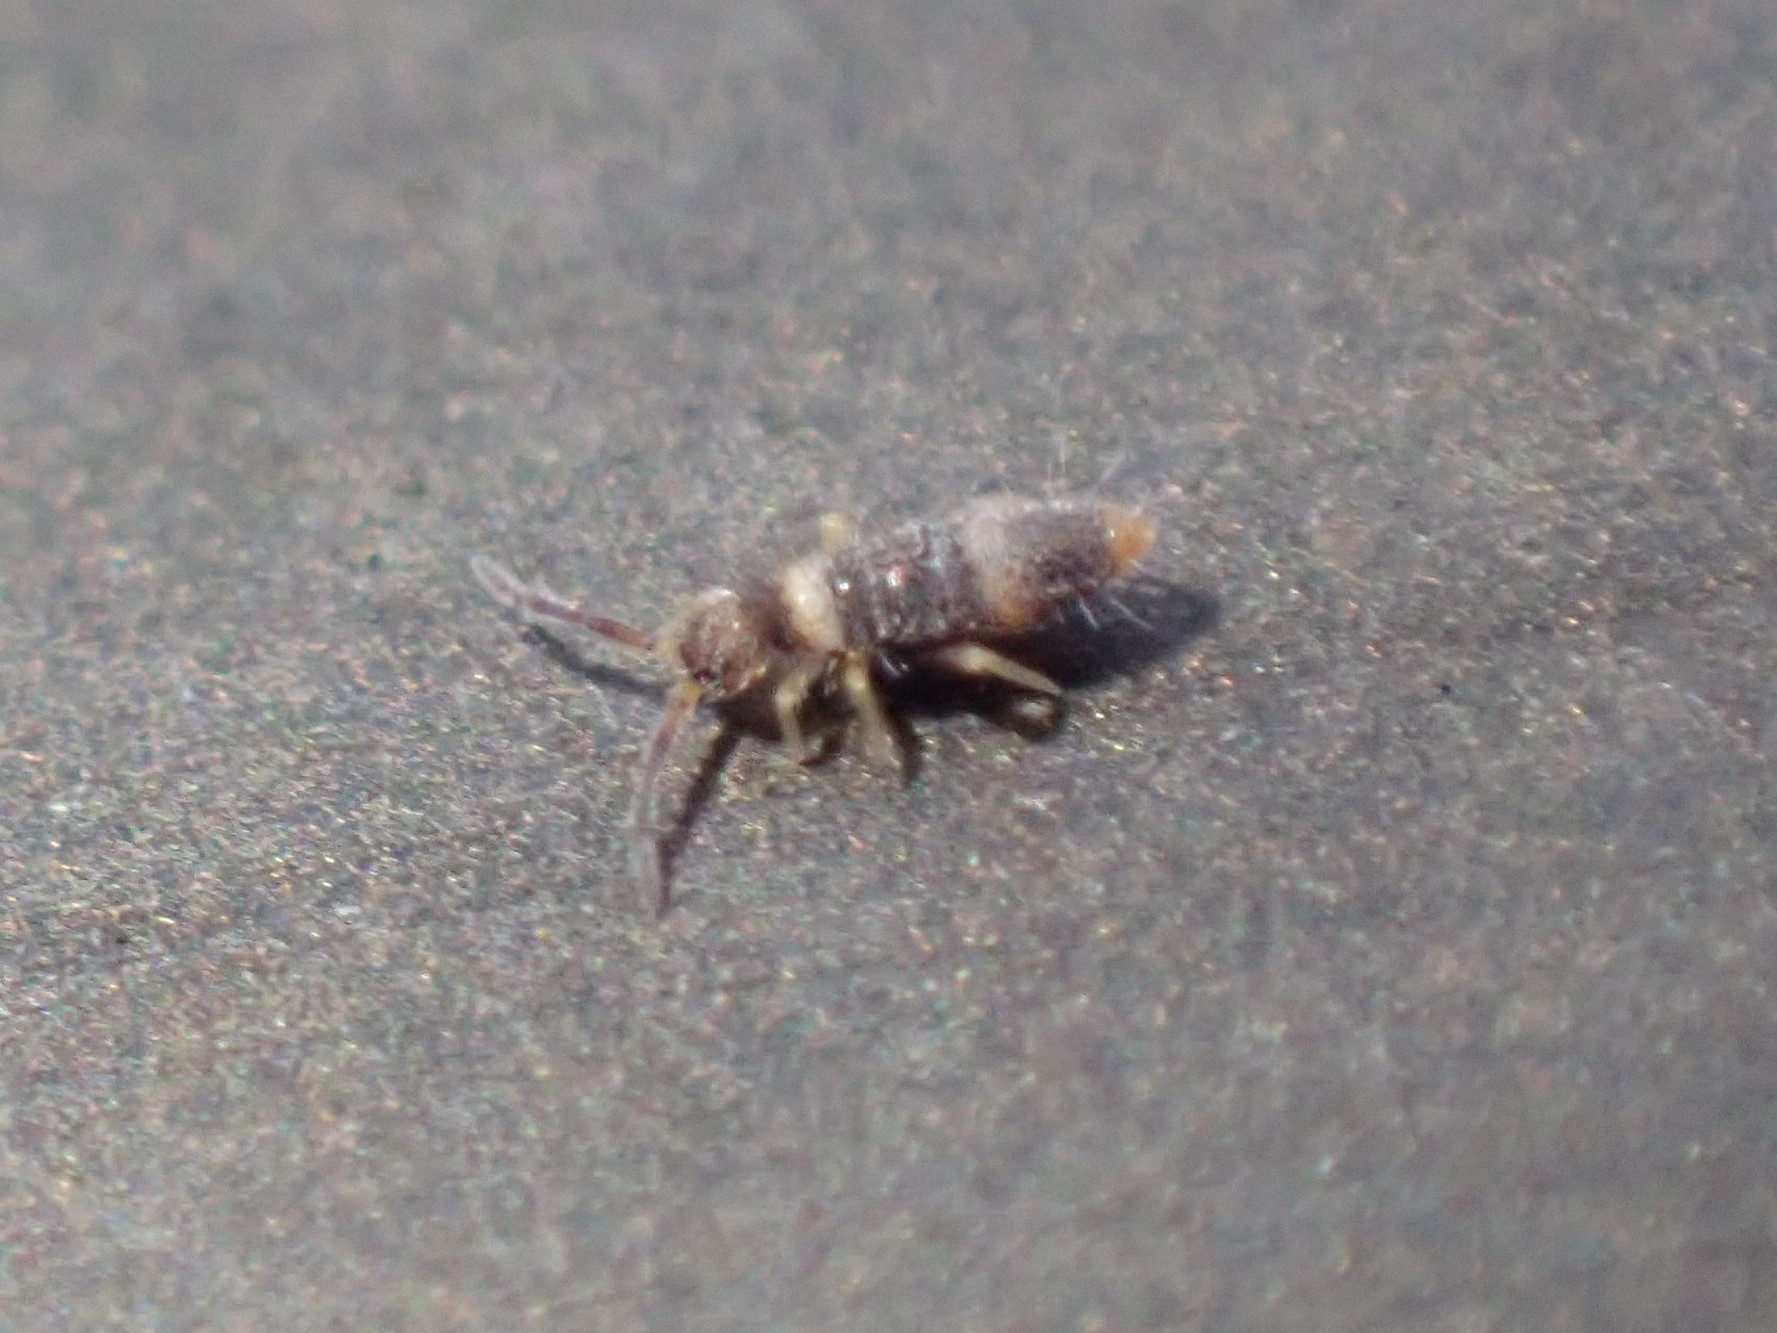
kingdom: Animalia
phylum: Arthropoda
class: Collembola
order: Entomobryomorpha
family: Entomobryidae
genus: Entomobrya
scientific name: Entomobrya albocincta
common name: Springtail
